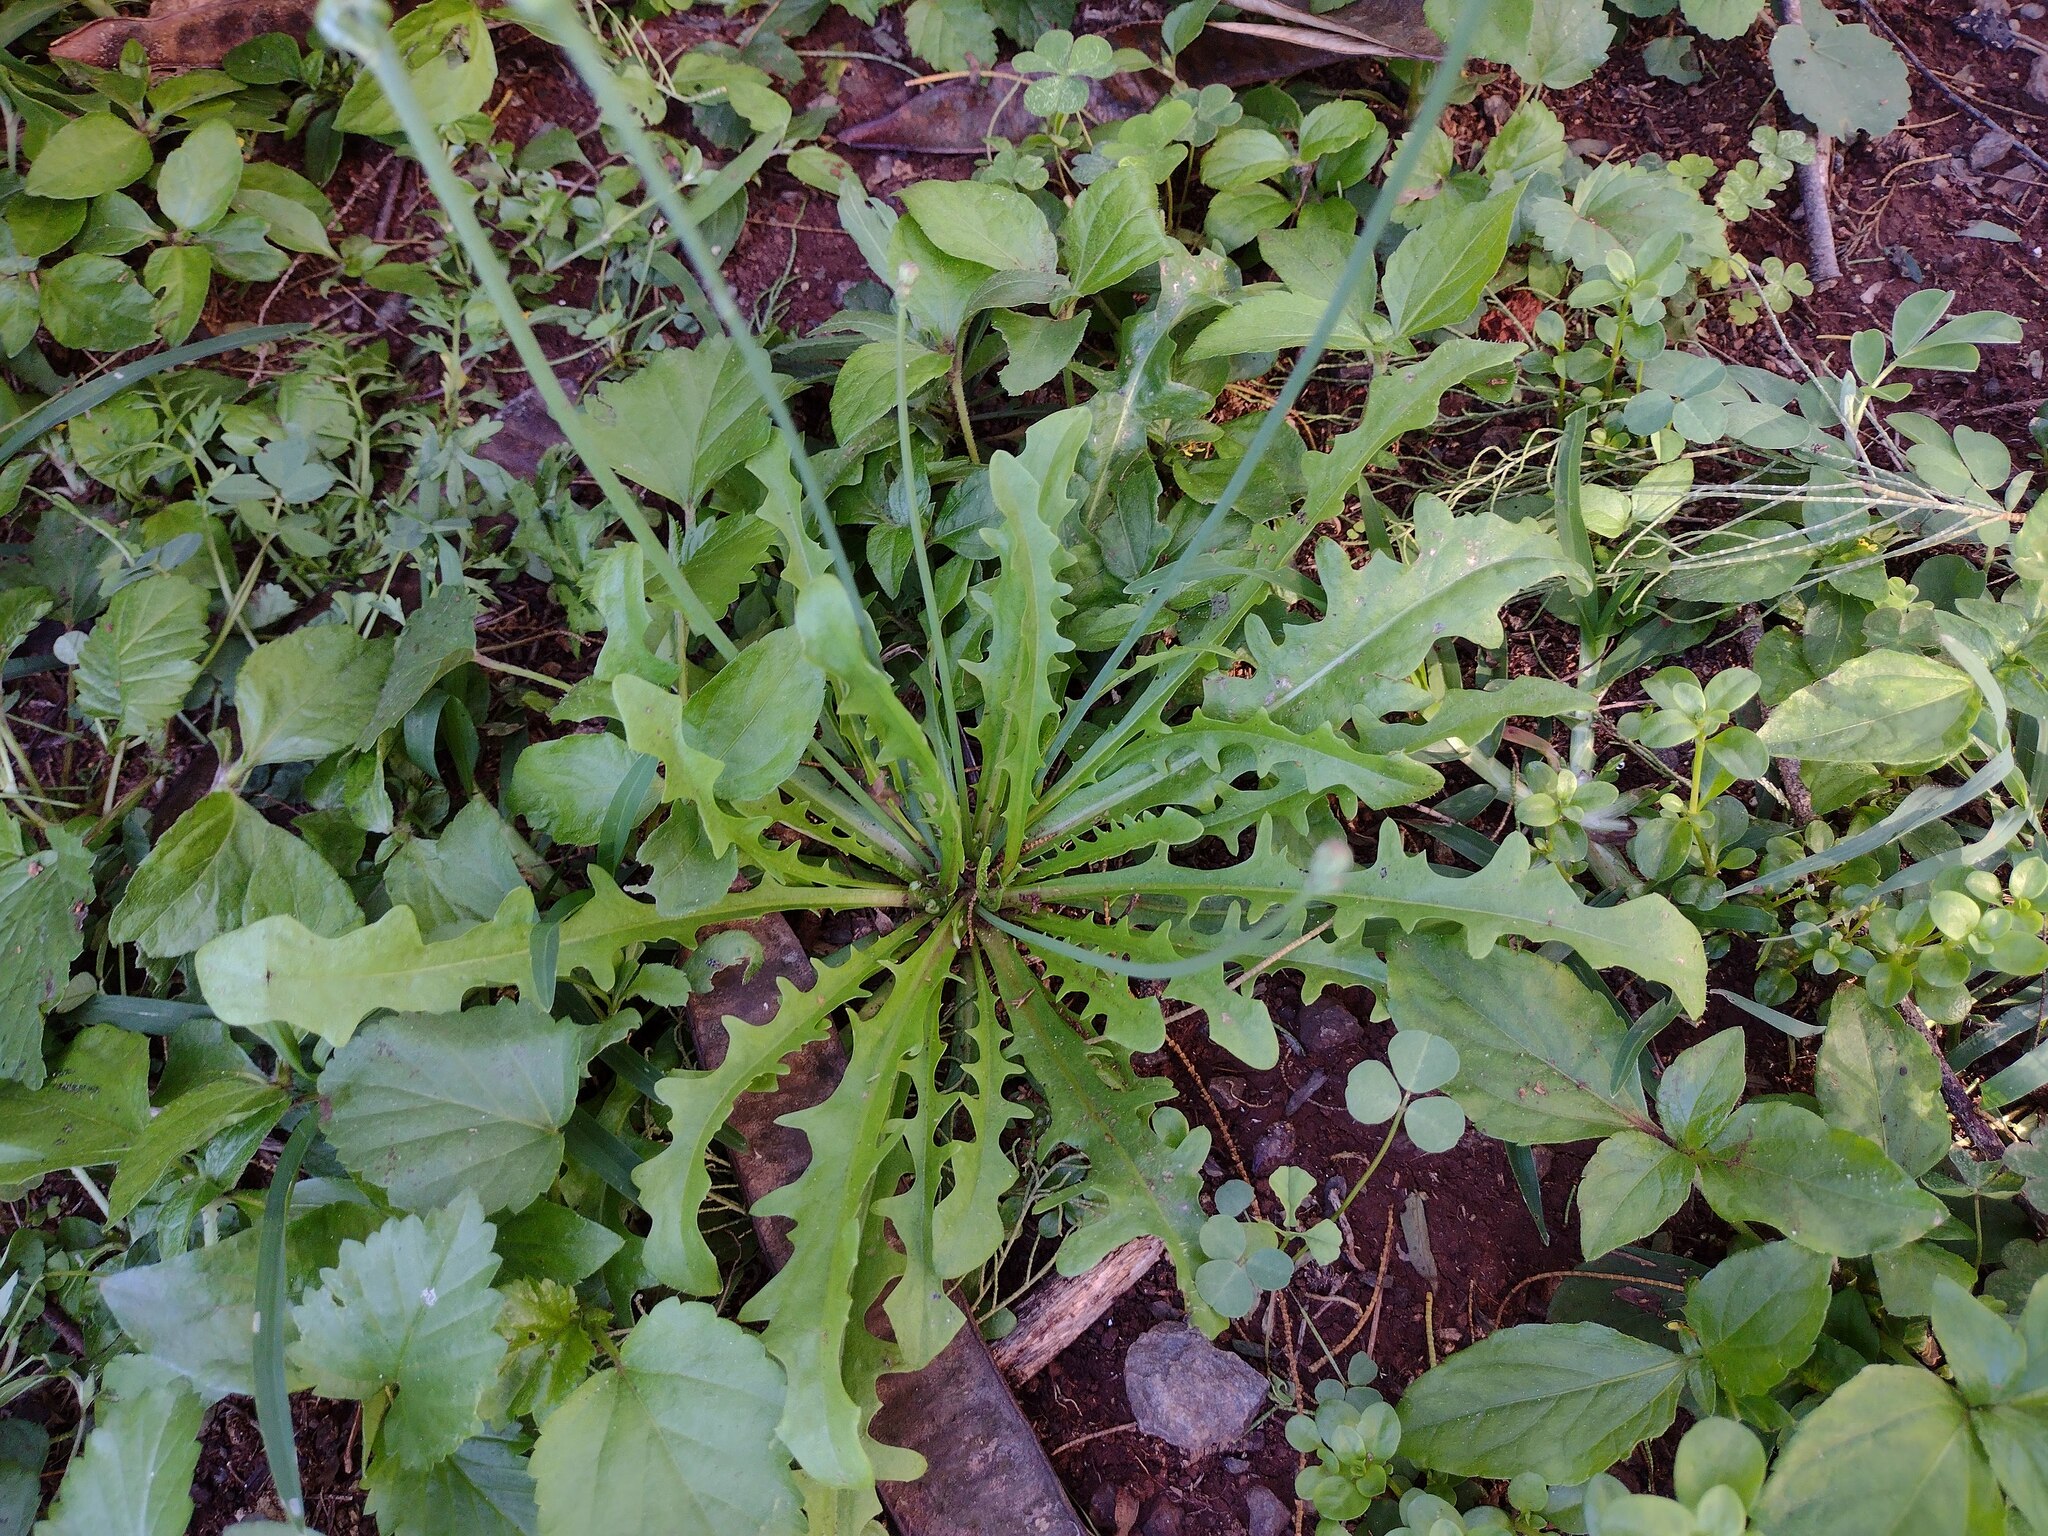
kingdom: Plantae
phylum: Tracheophyta
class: Magnoliopsida
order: Asterales
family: Asteraceae
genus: Hypochaeris
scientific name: Hypochaeris radicata
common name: Flatweed
